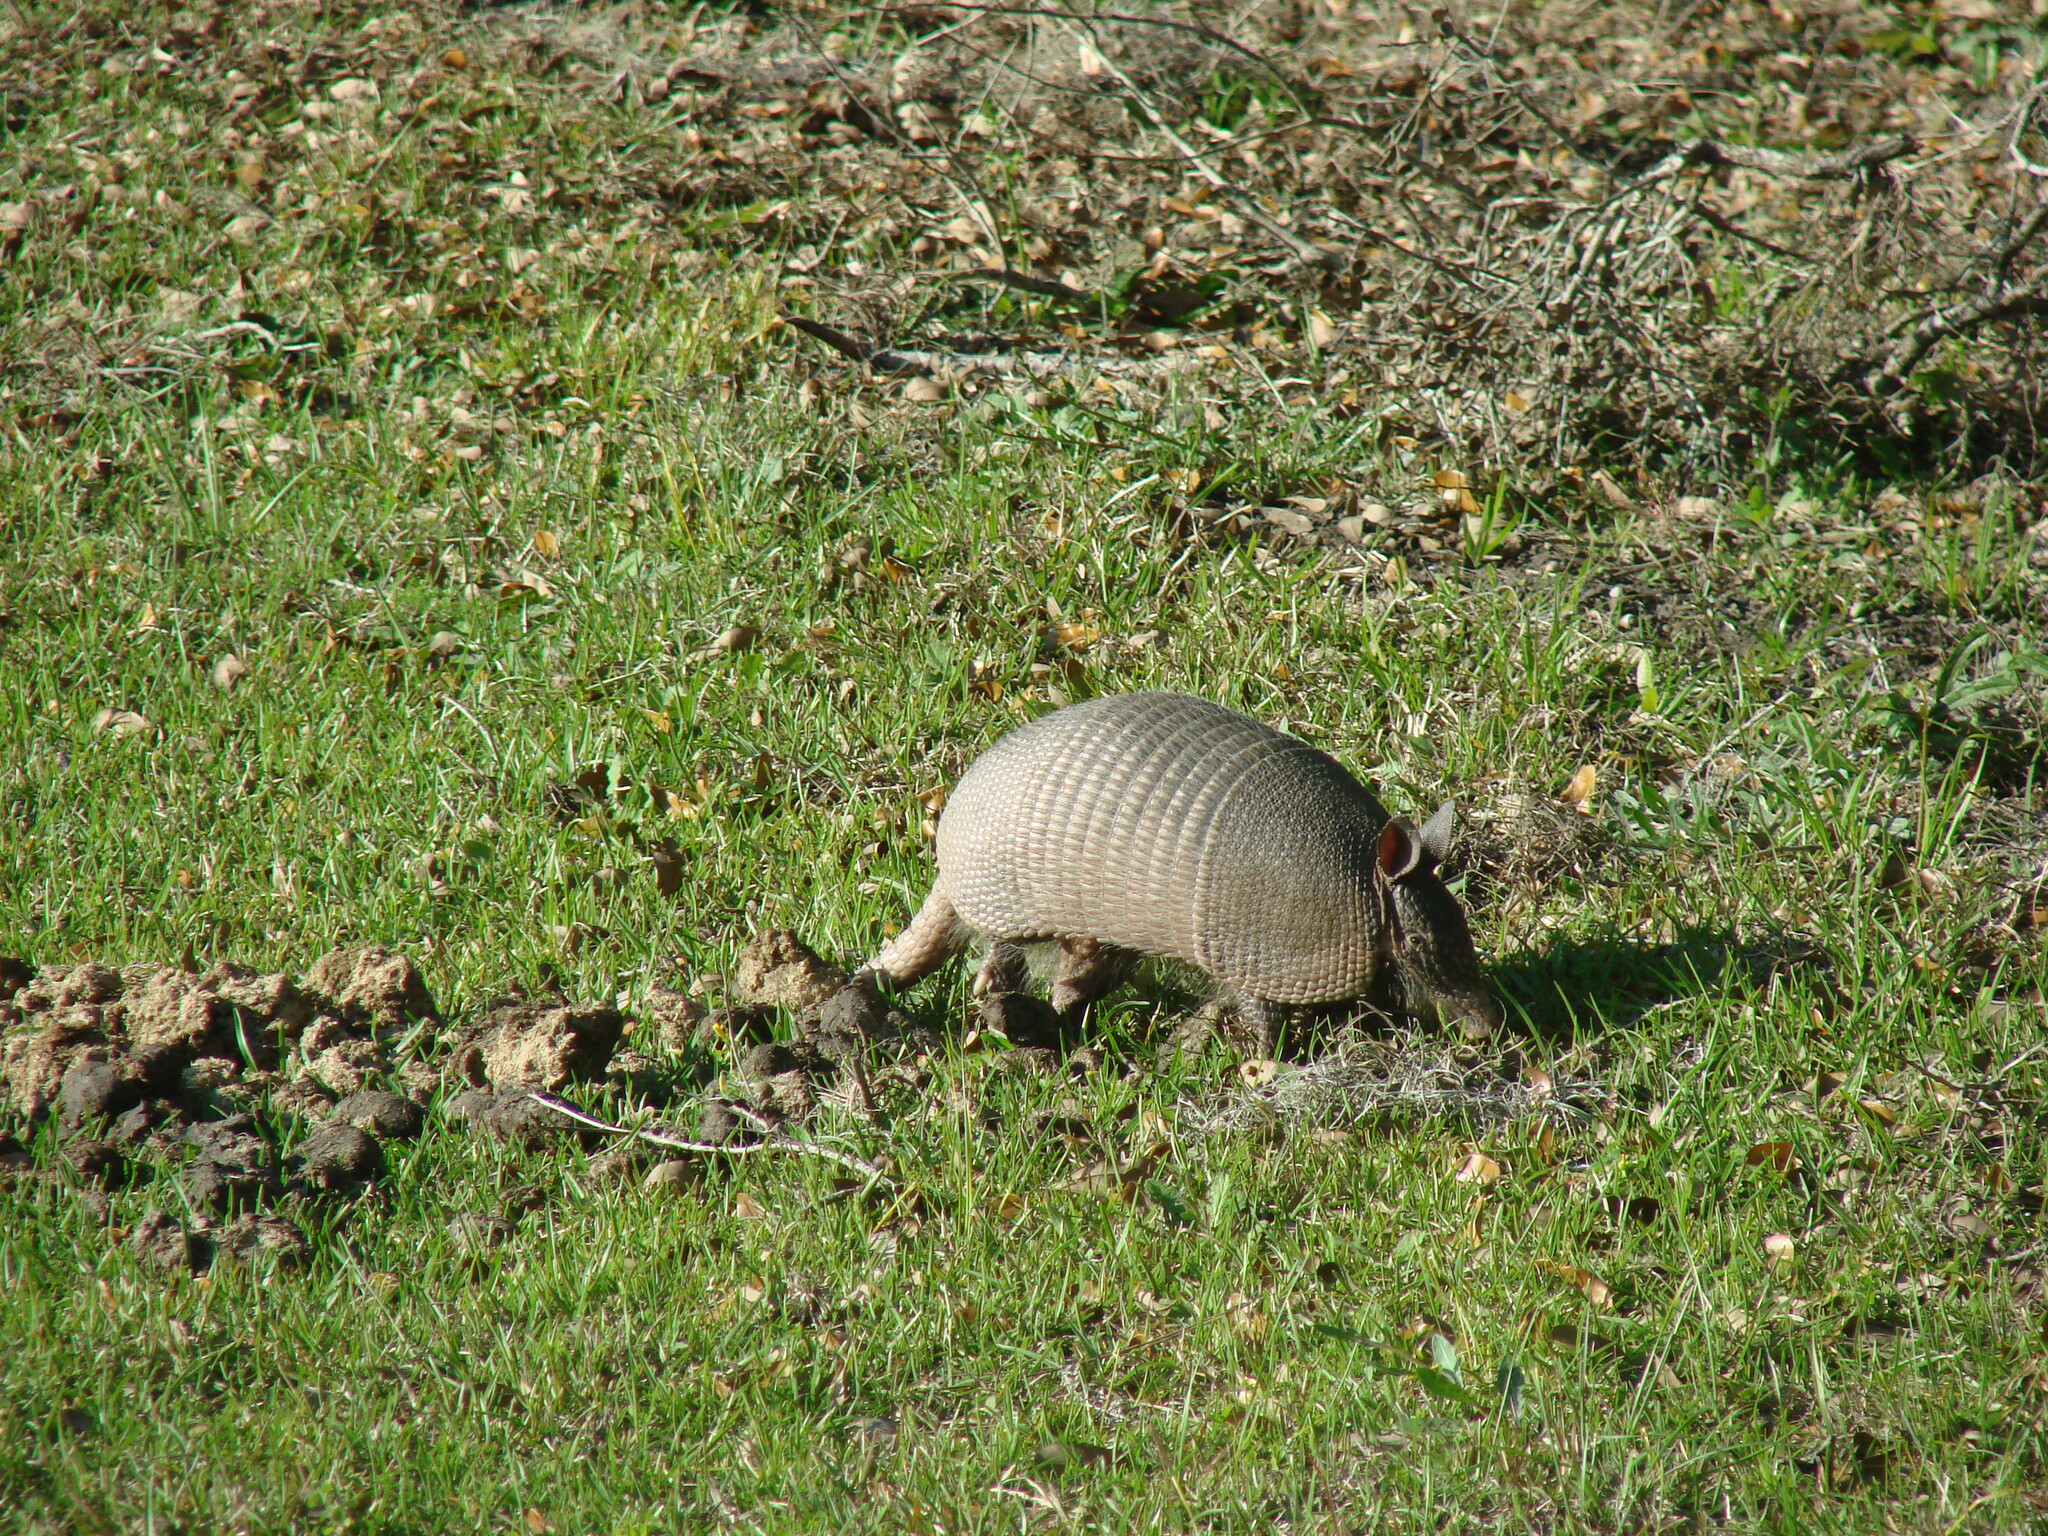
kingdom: Animalia
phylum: Chordata
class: Mammalia
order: Cingulata
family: Dasypodidae
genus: Dasypus
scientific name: Dasypus novemcinctus
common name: Nine-banded armadillo
